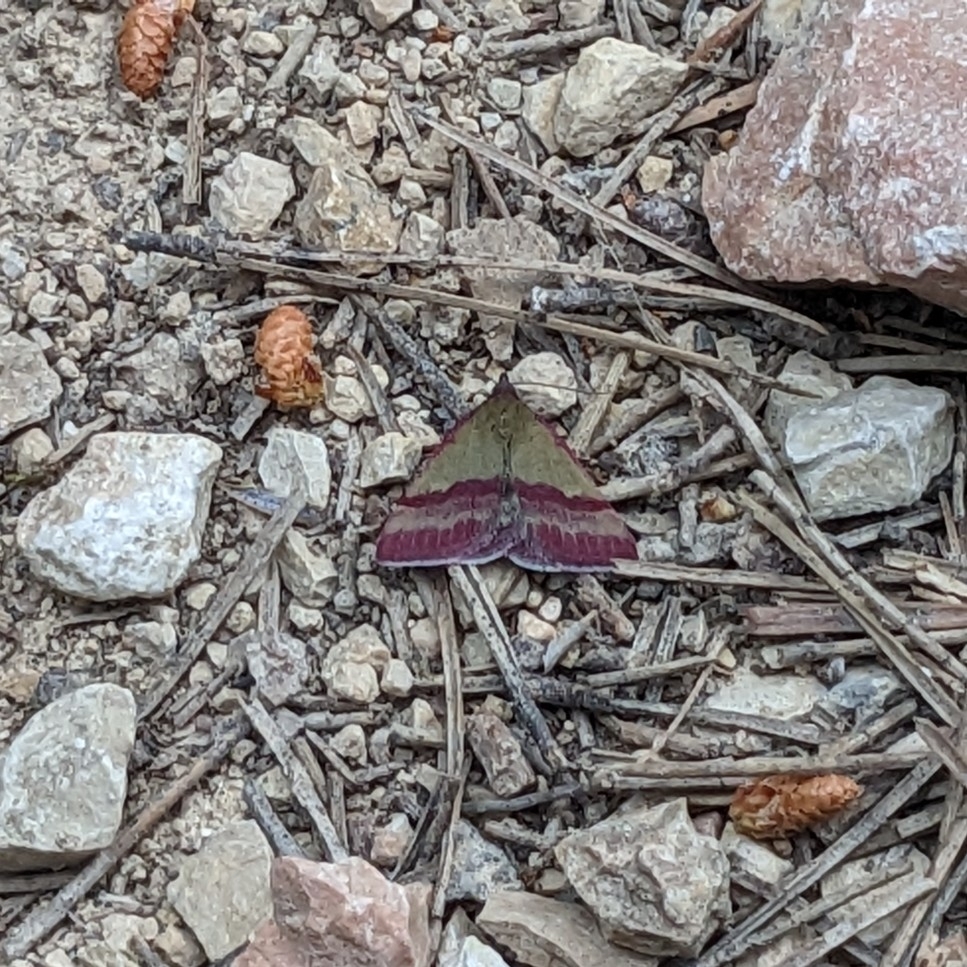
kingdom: Animalia
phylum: Arthropoda
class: Insecta
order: Lepidoptera
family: Erebidae
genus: Phytometra
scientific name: Phytometra viridaria
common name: Small purple-barred
